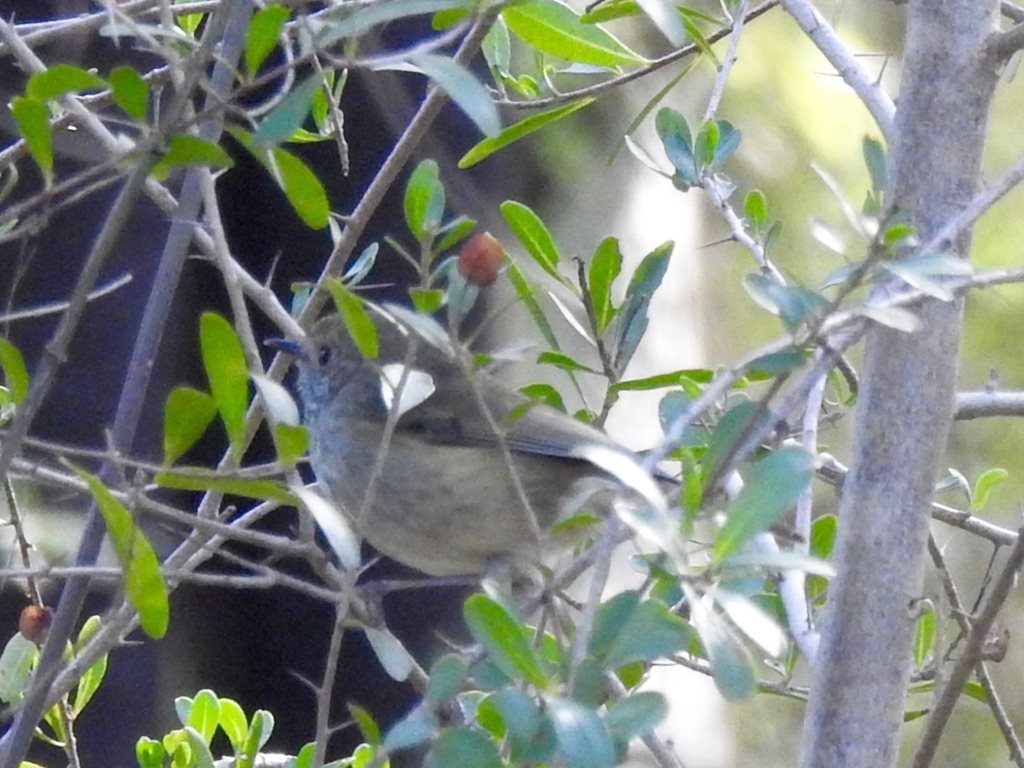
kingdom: Animalia
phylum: Chordata
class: Aves
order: Passeriformes
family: Acanthizidae
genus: Acanthiza
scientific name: Acanthiza pusilla
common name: Brown thornbill
